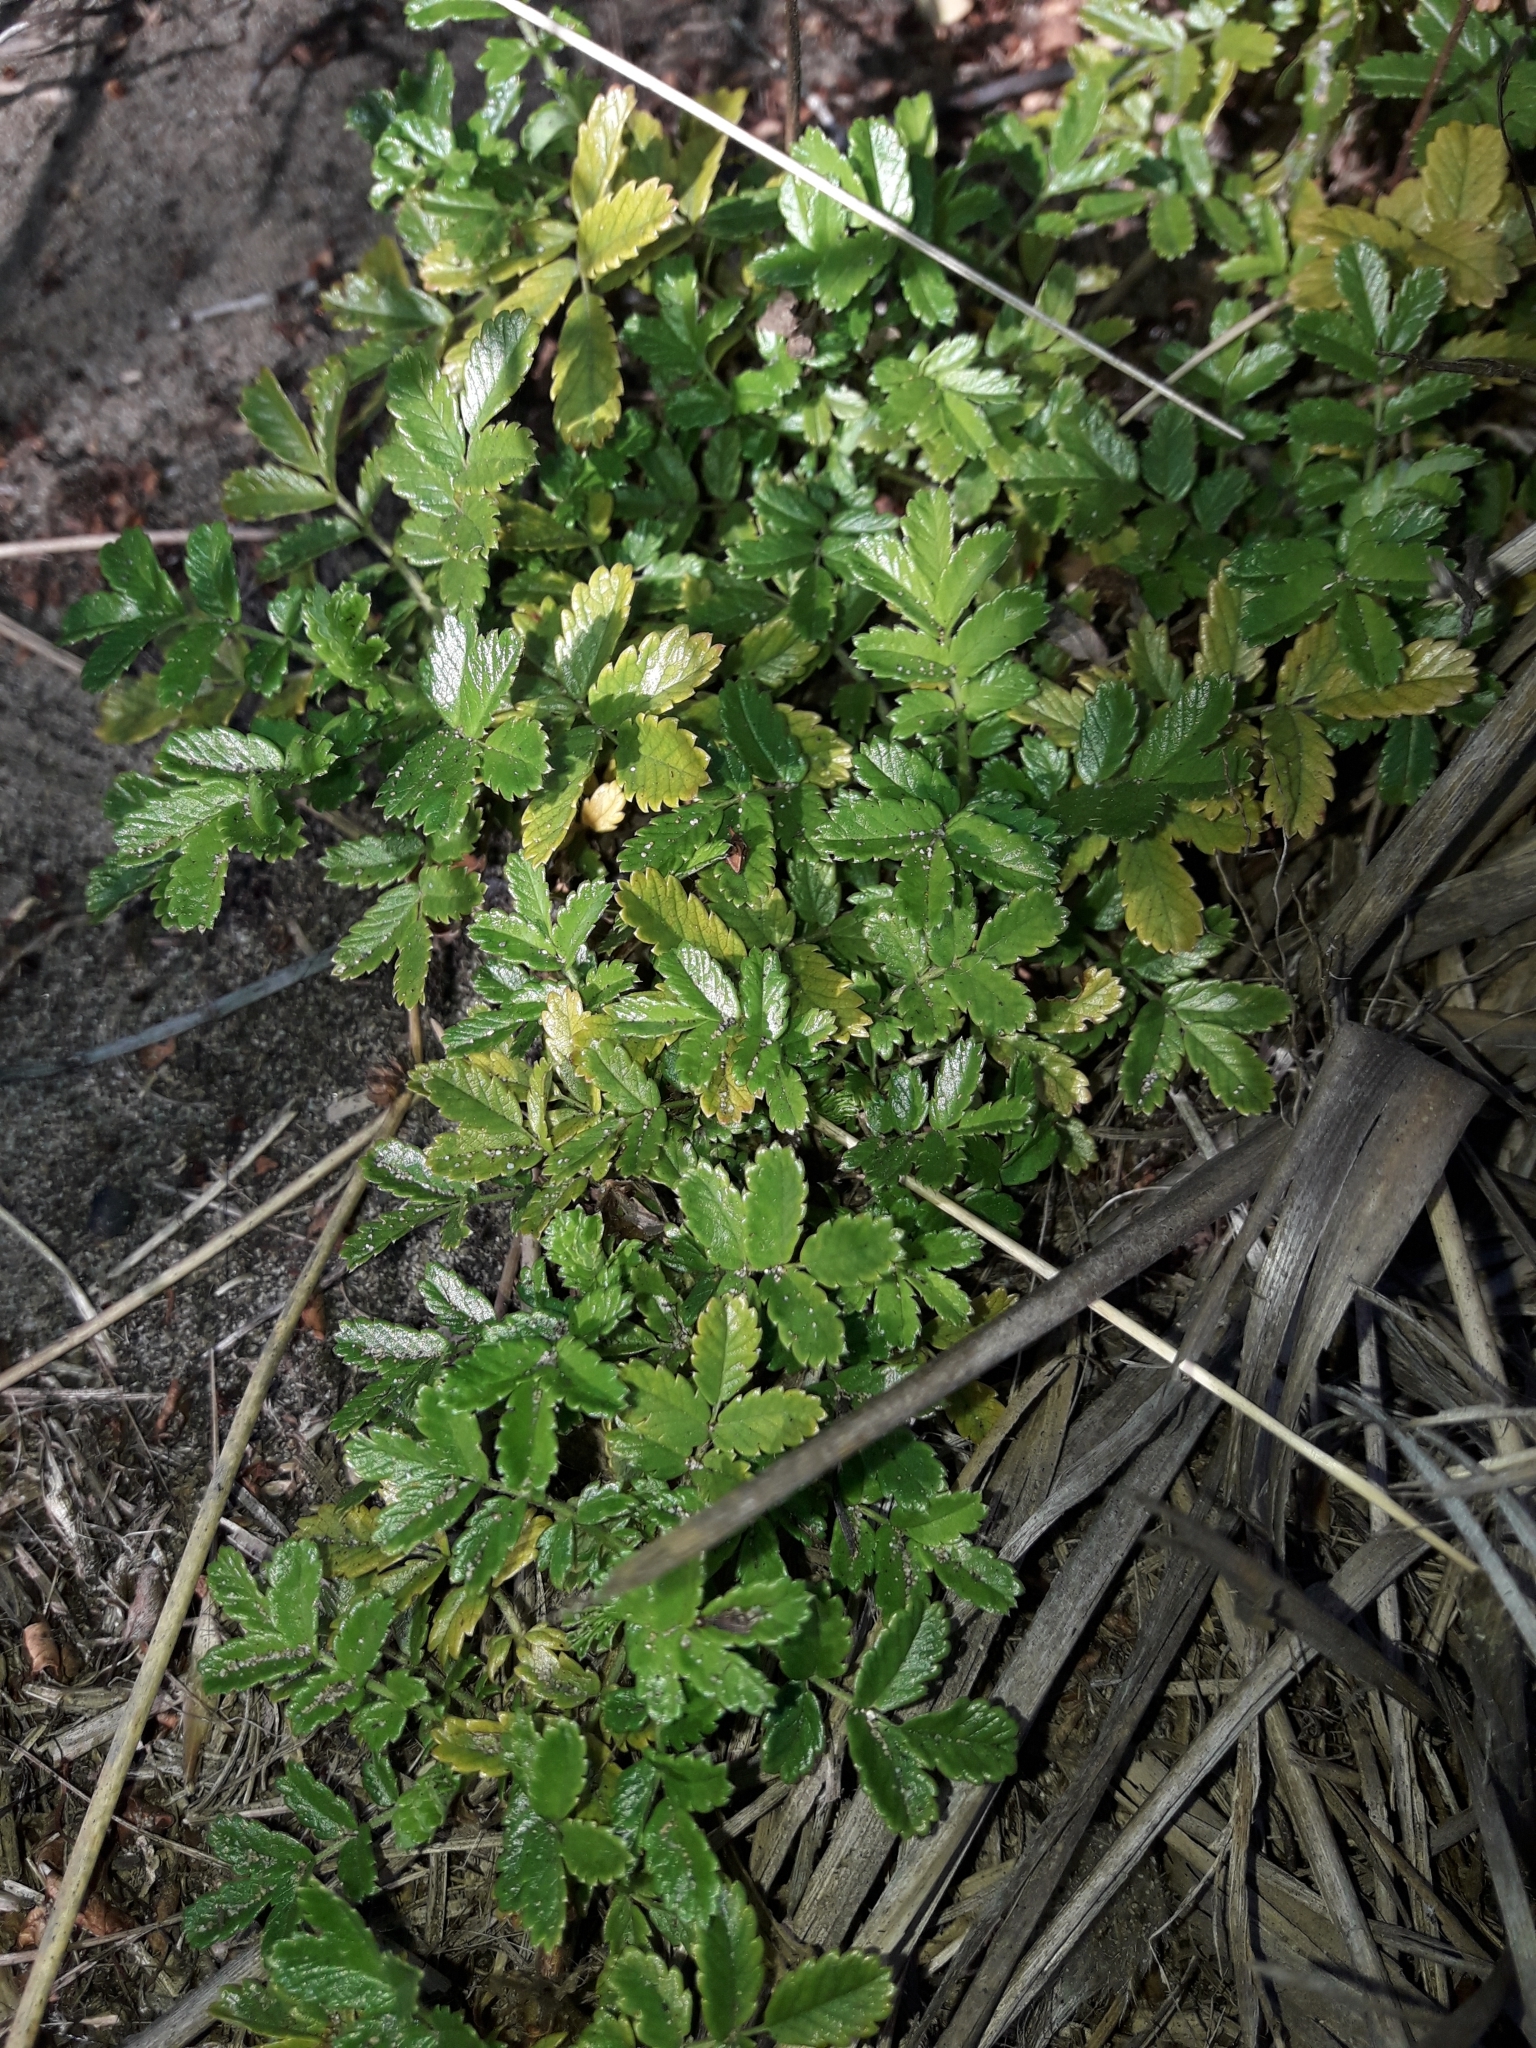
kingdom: Plantae
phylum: Tracheophyta
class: Magnoliopsida
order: Rosales
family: Rosaceae
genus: Acaena
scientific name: Acaena pallida
